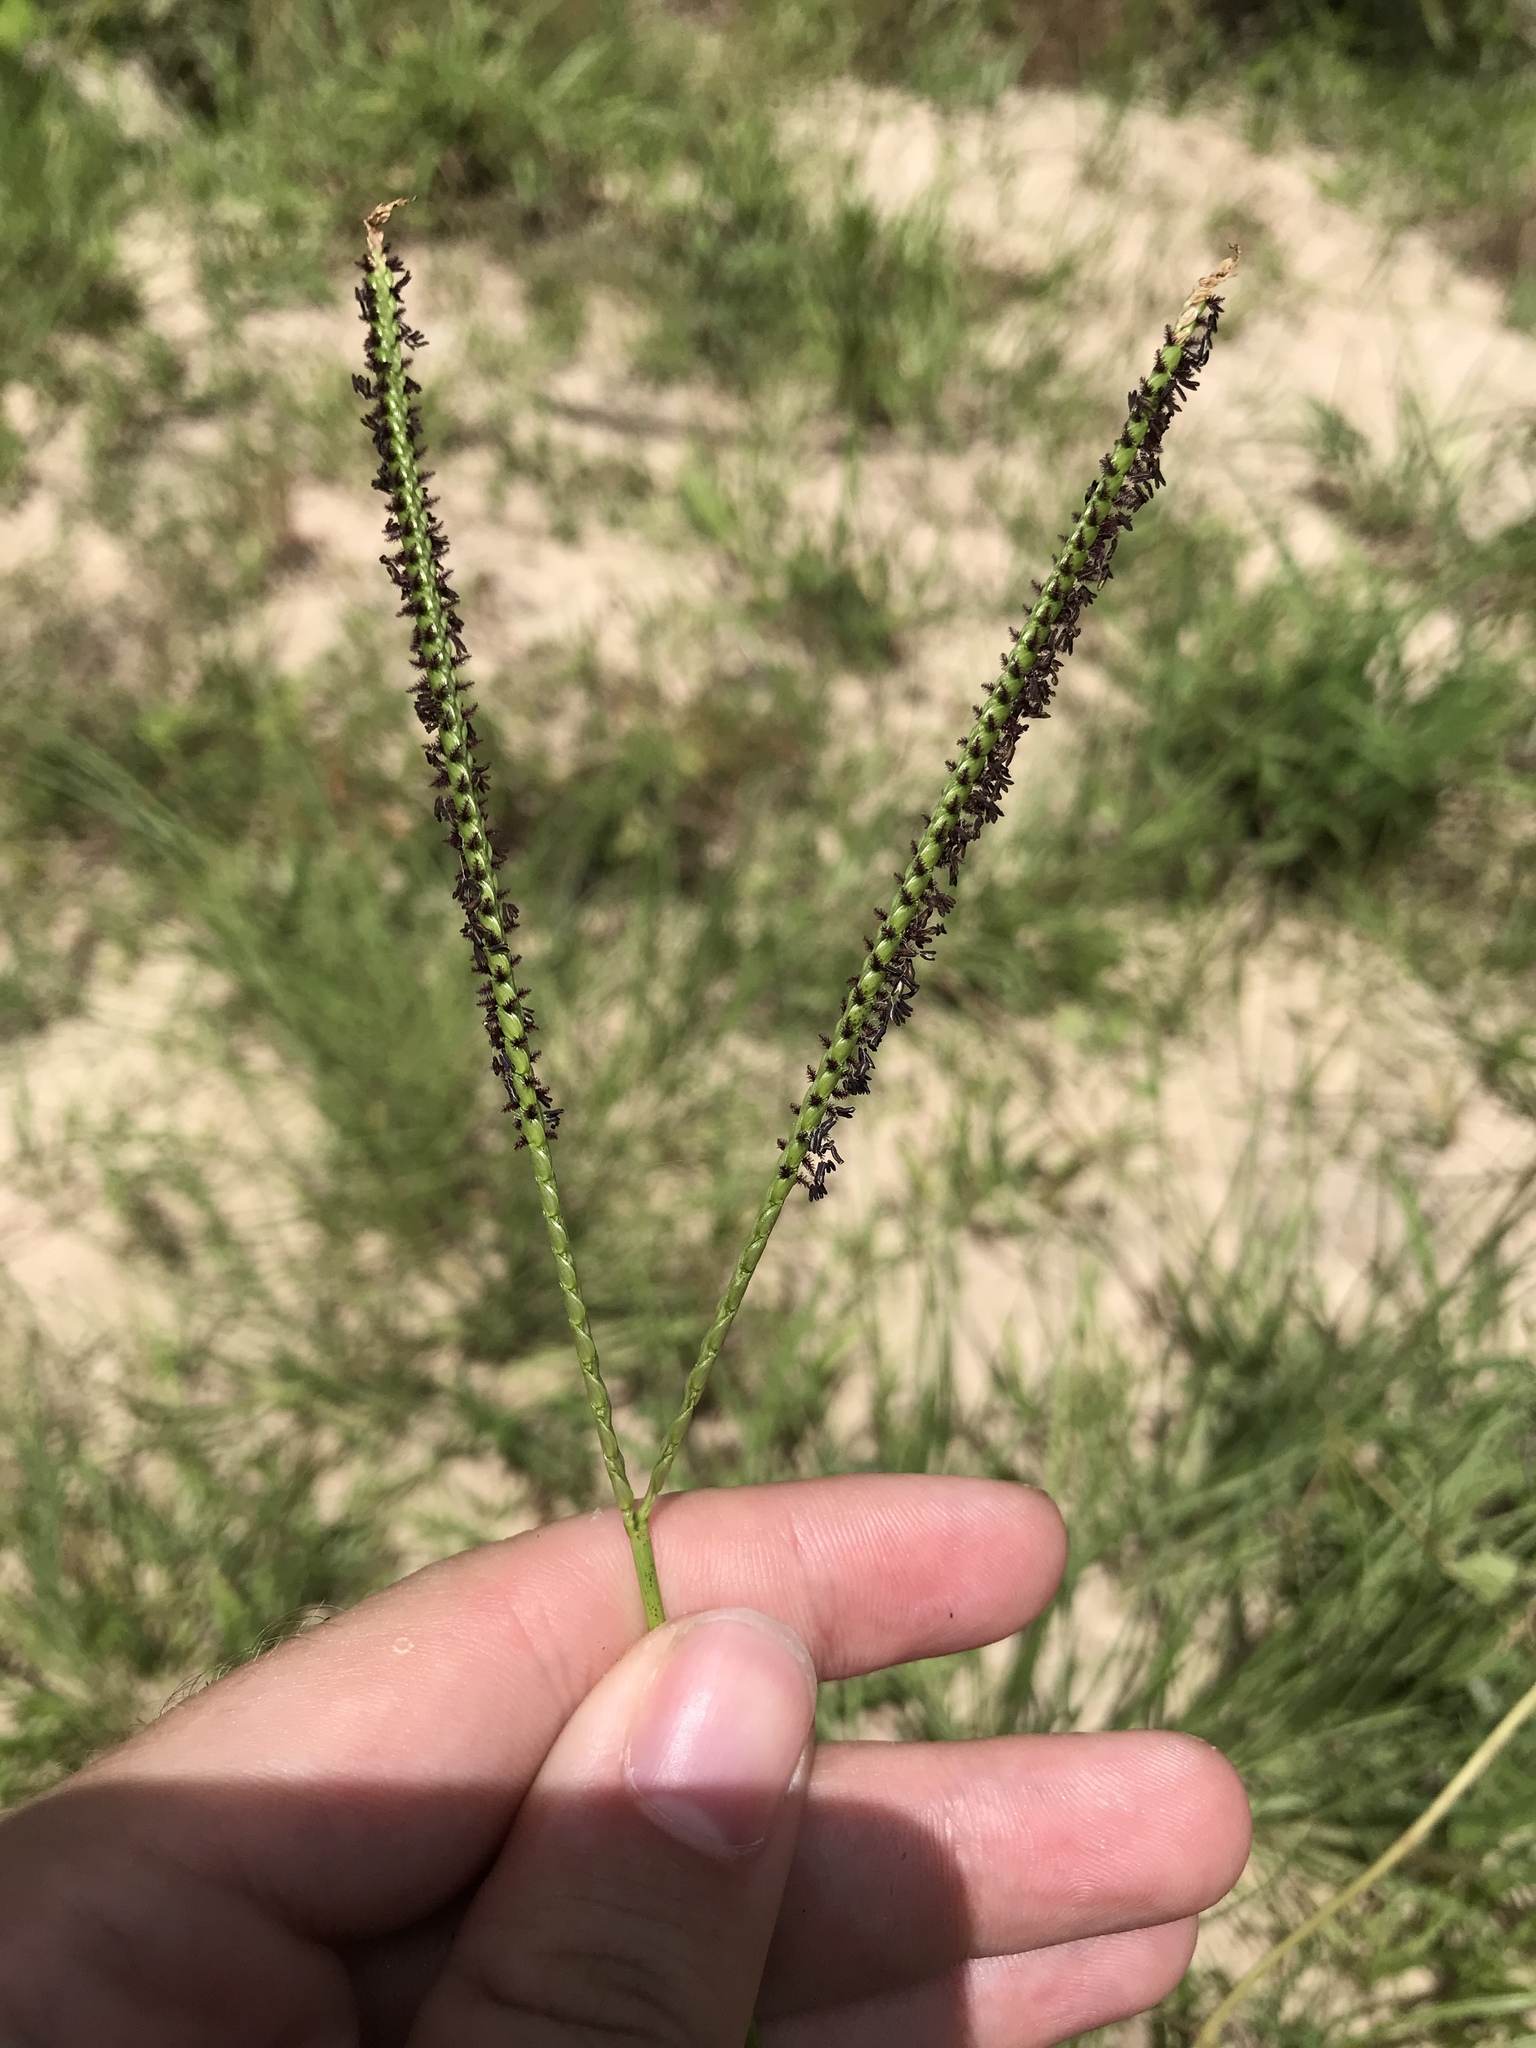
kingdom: Plantae
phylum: Tracheophyta
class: Liliopsida
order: Poales
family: Poaceae
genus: Paspalum
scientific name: Paspalum notatum
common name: Bahiagrass
